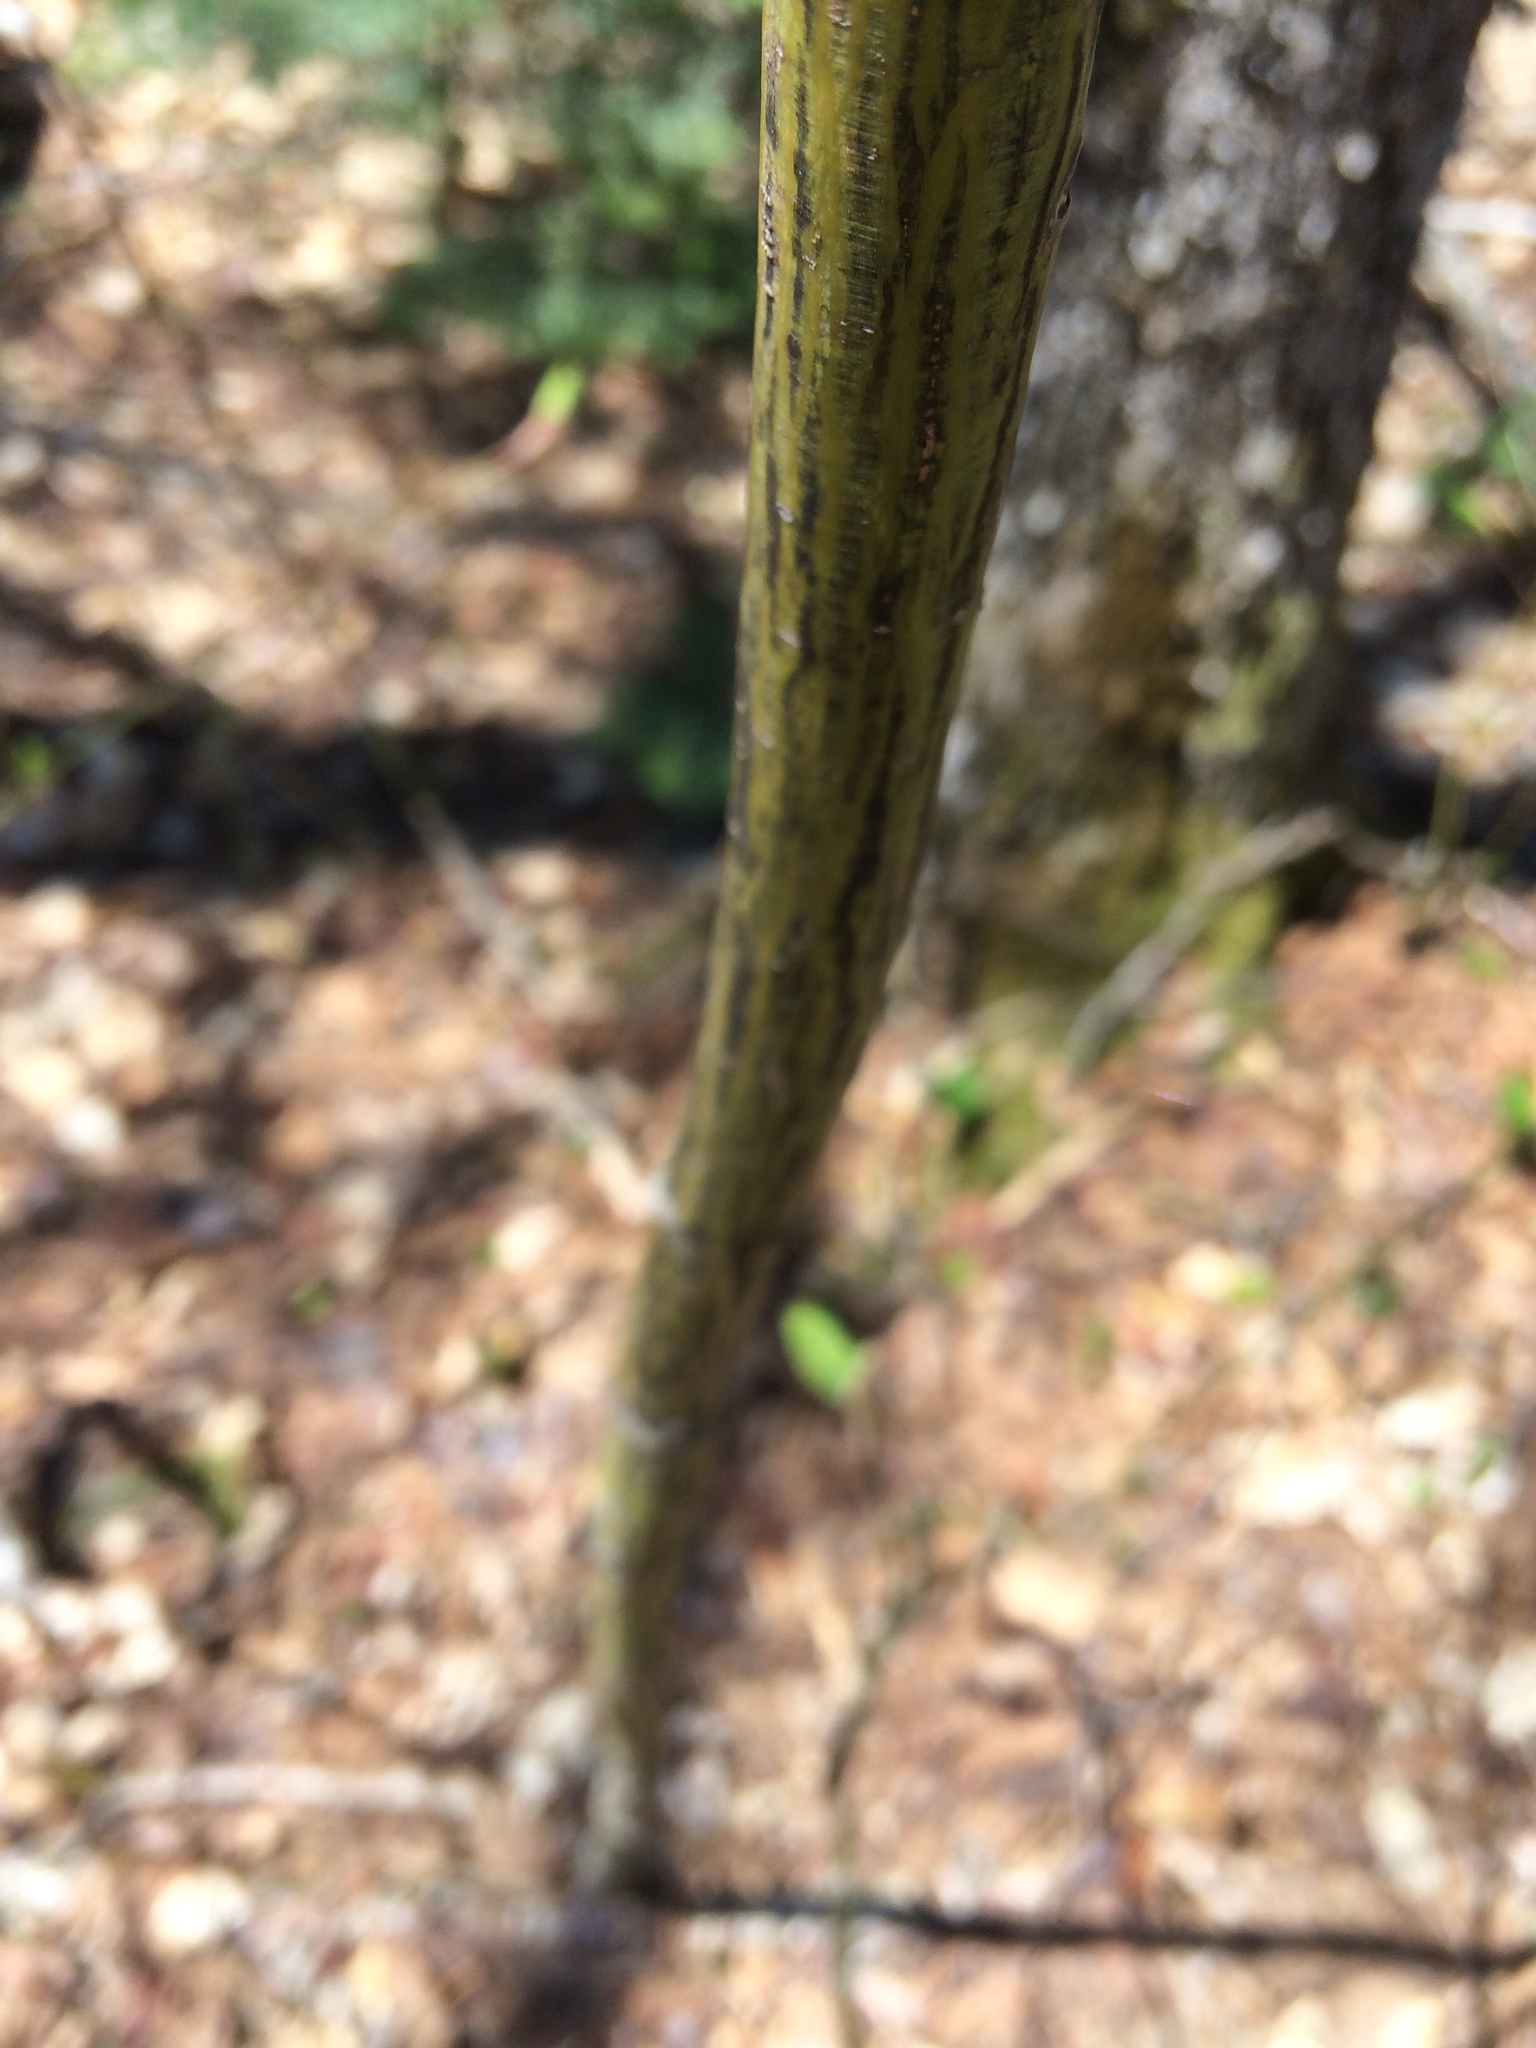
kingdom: Plantae
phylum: Tracheophyta
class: Magnoliopsida
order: Sapindales
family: Sapindaceae
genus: Acer
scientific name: Acer pensylvanicum
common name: Moosewood
